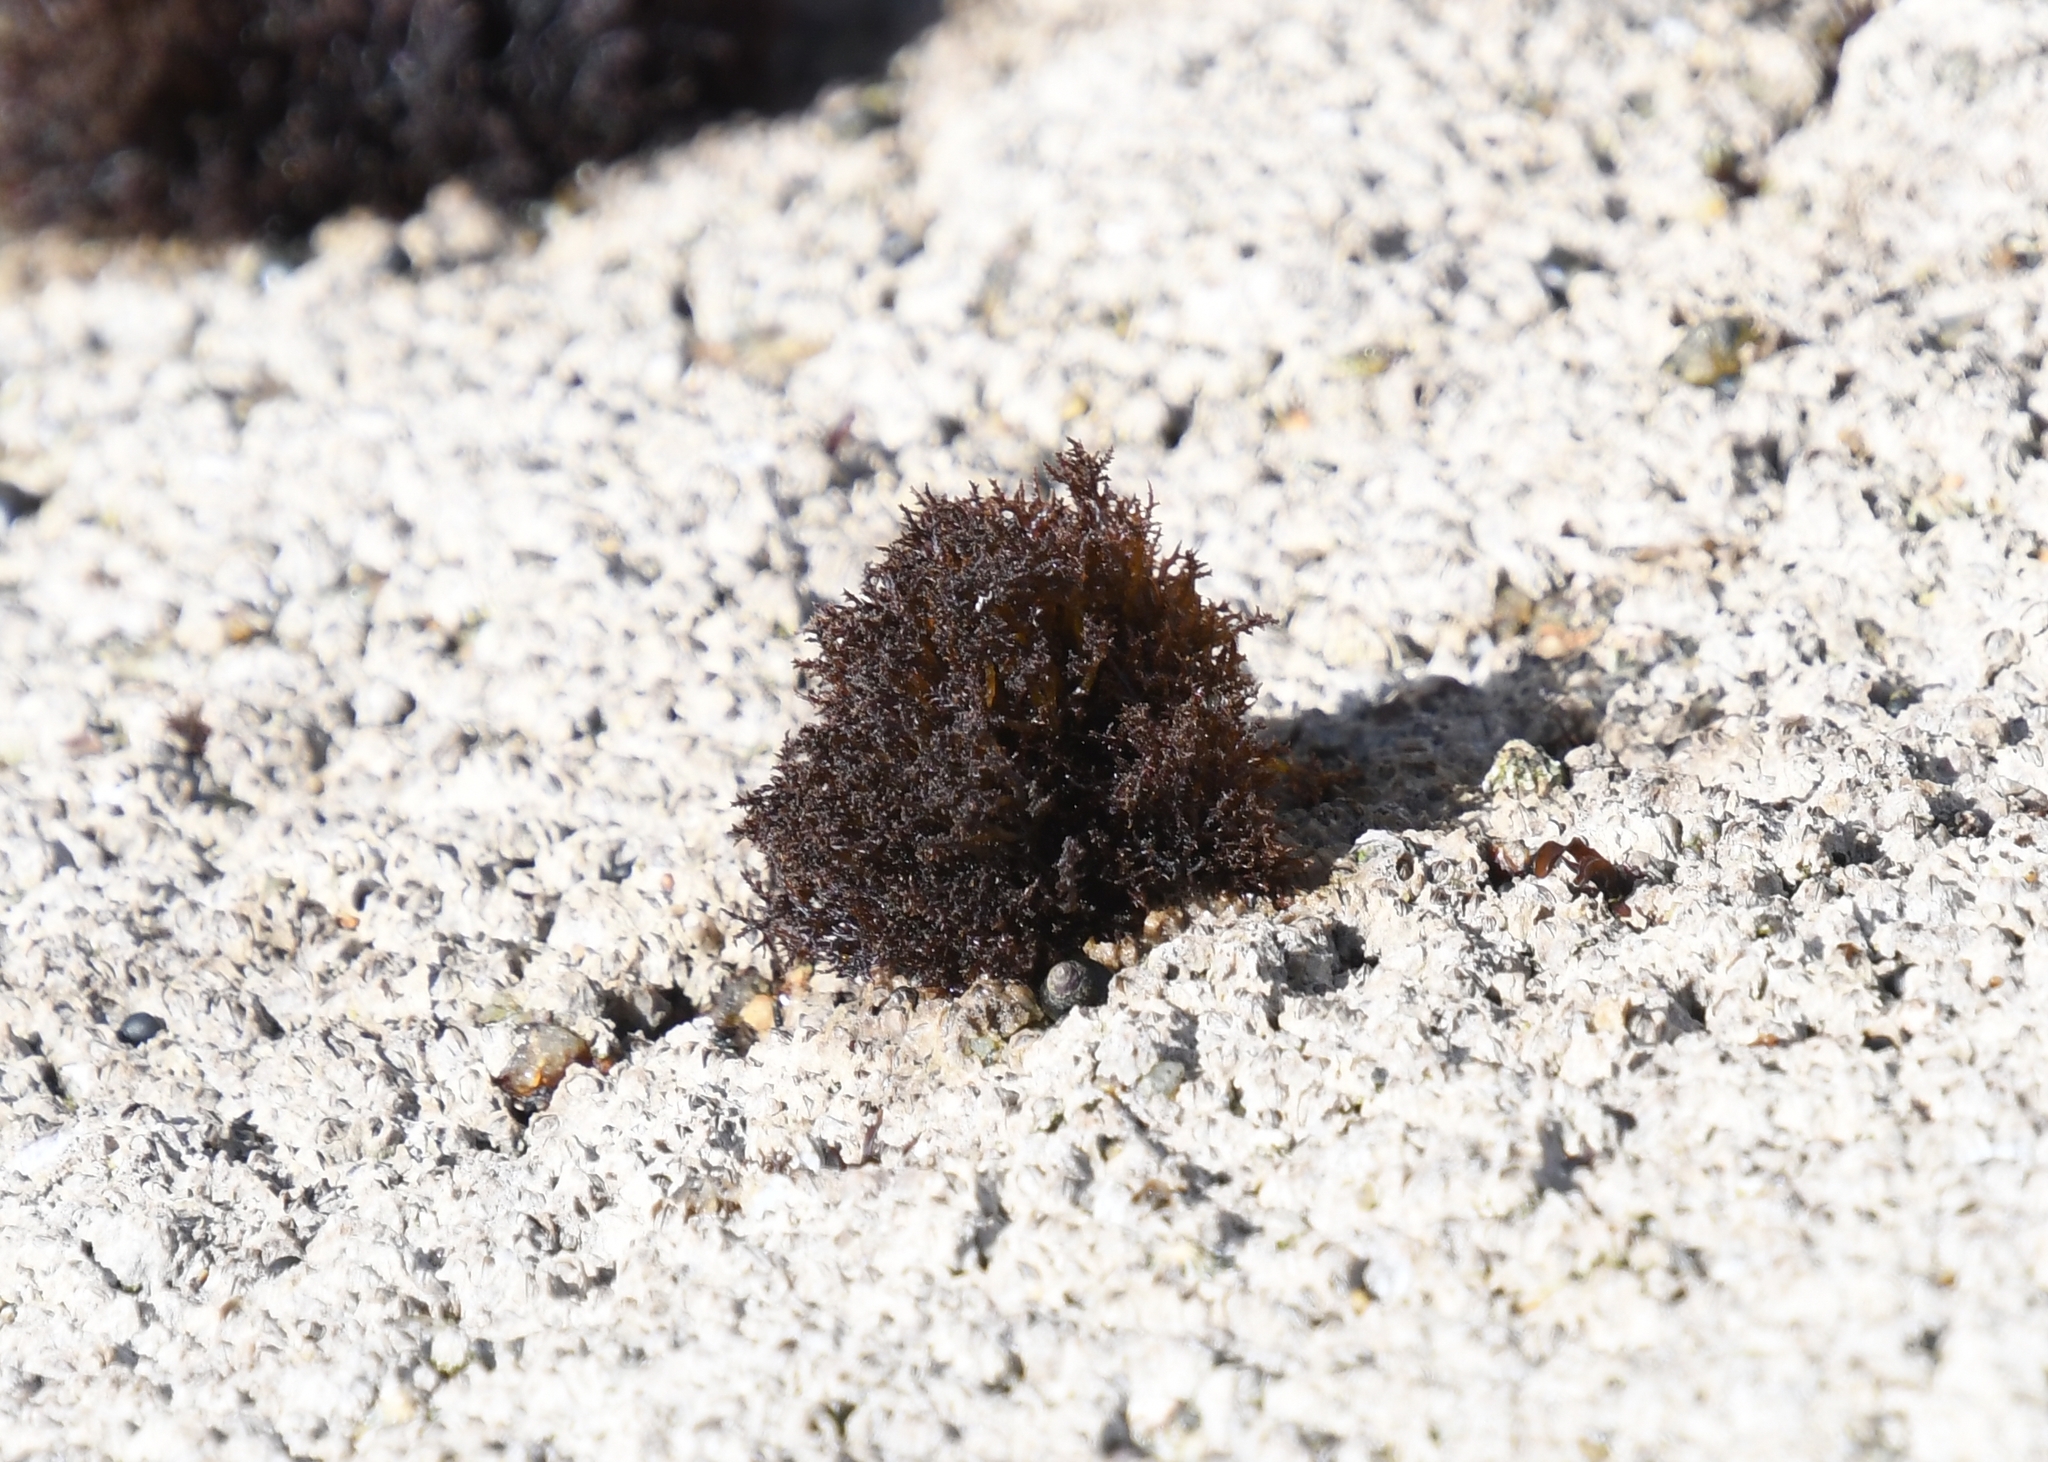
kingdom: Plantae
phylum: Rhodophyta
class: Florideophyceae
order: Gigartinales
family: Endocladiaceae
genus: Endocladia
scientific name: Endocladia muricata
